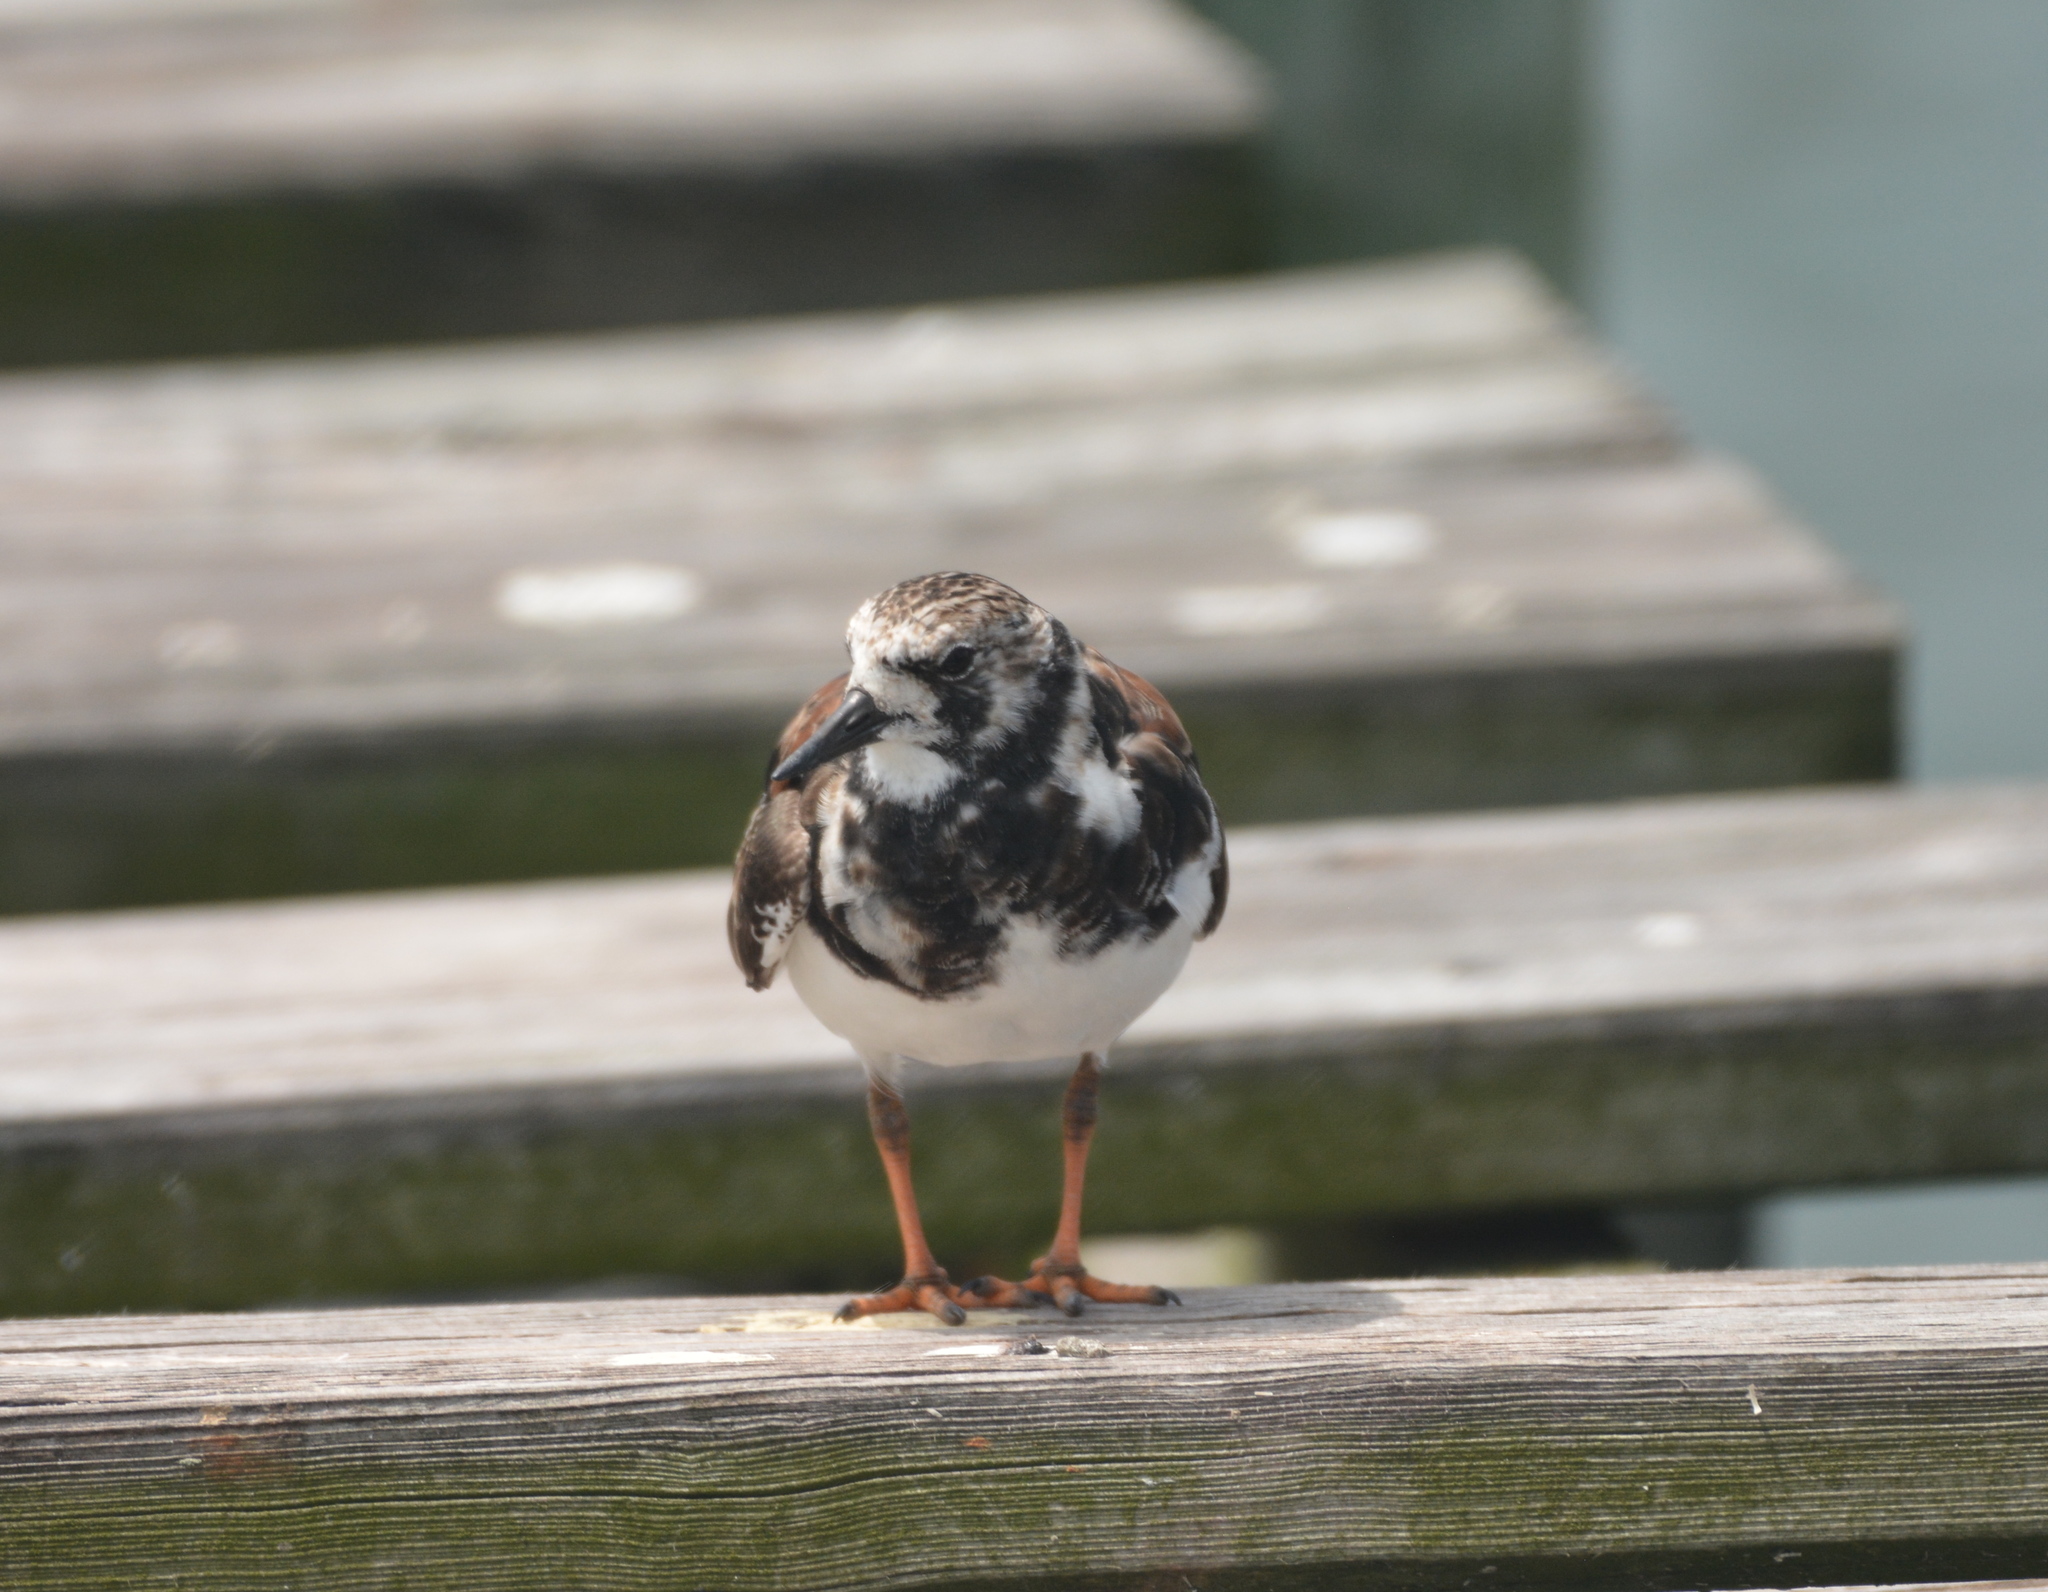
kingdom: Animalia
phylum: Chordata
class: Aves
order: Charadriiformes
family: Scolopacidae
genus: Arenaria
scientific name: Arenaria interpres
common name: Ruddy turnstone
